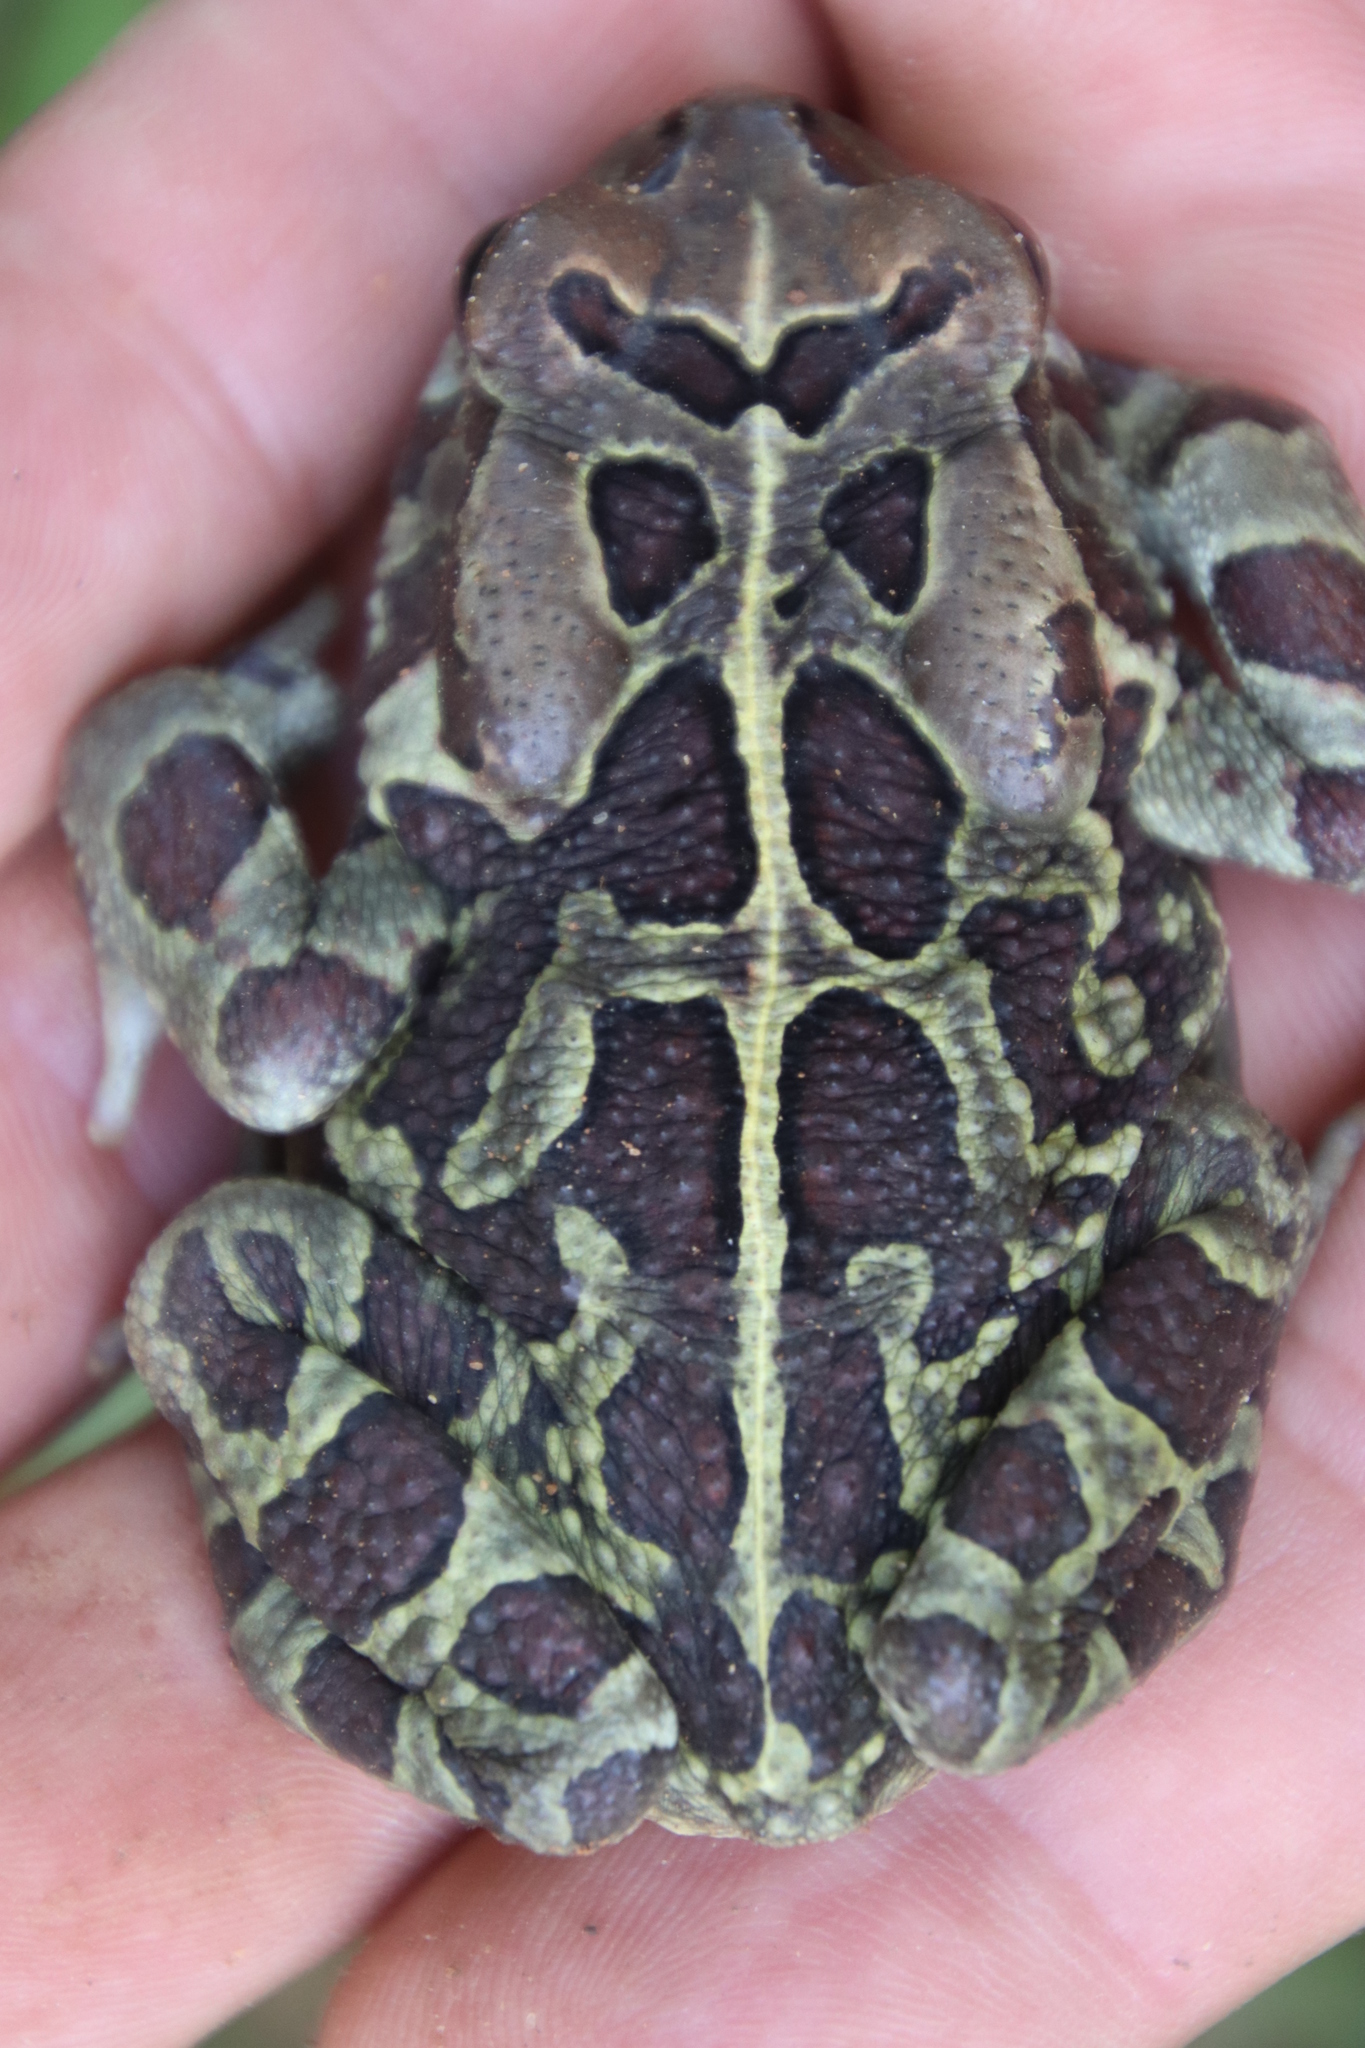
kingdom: Animalia
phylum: Chordata
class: Amphibia
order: Anura
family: Bufonidae
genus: Sclerophrys
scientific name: Sclerophrys pantherina
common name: Panther toad
